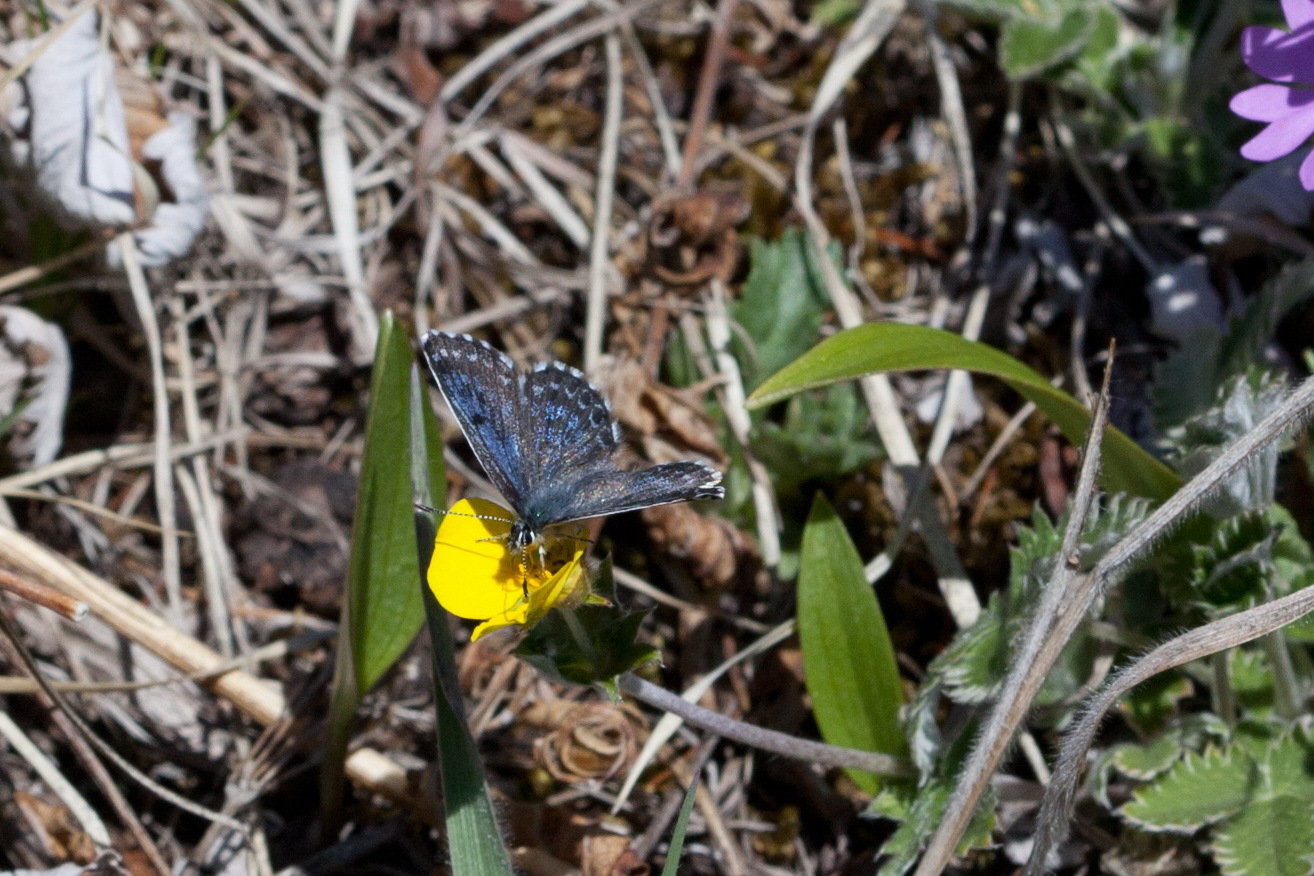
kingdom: Animalia
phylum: Arthropoda
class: Insecta
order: Lepidoptera
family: Lycaenidae
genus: Scolitantides
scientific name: Scolitantides orion
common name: Chequered blue
